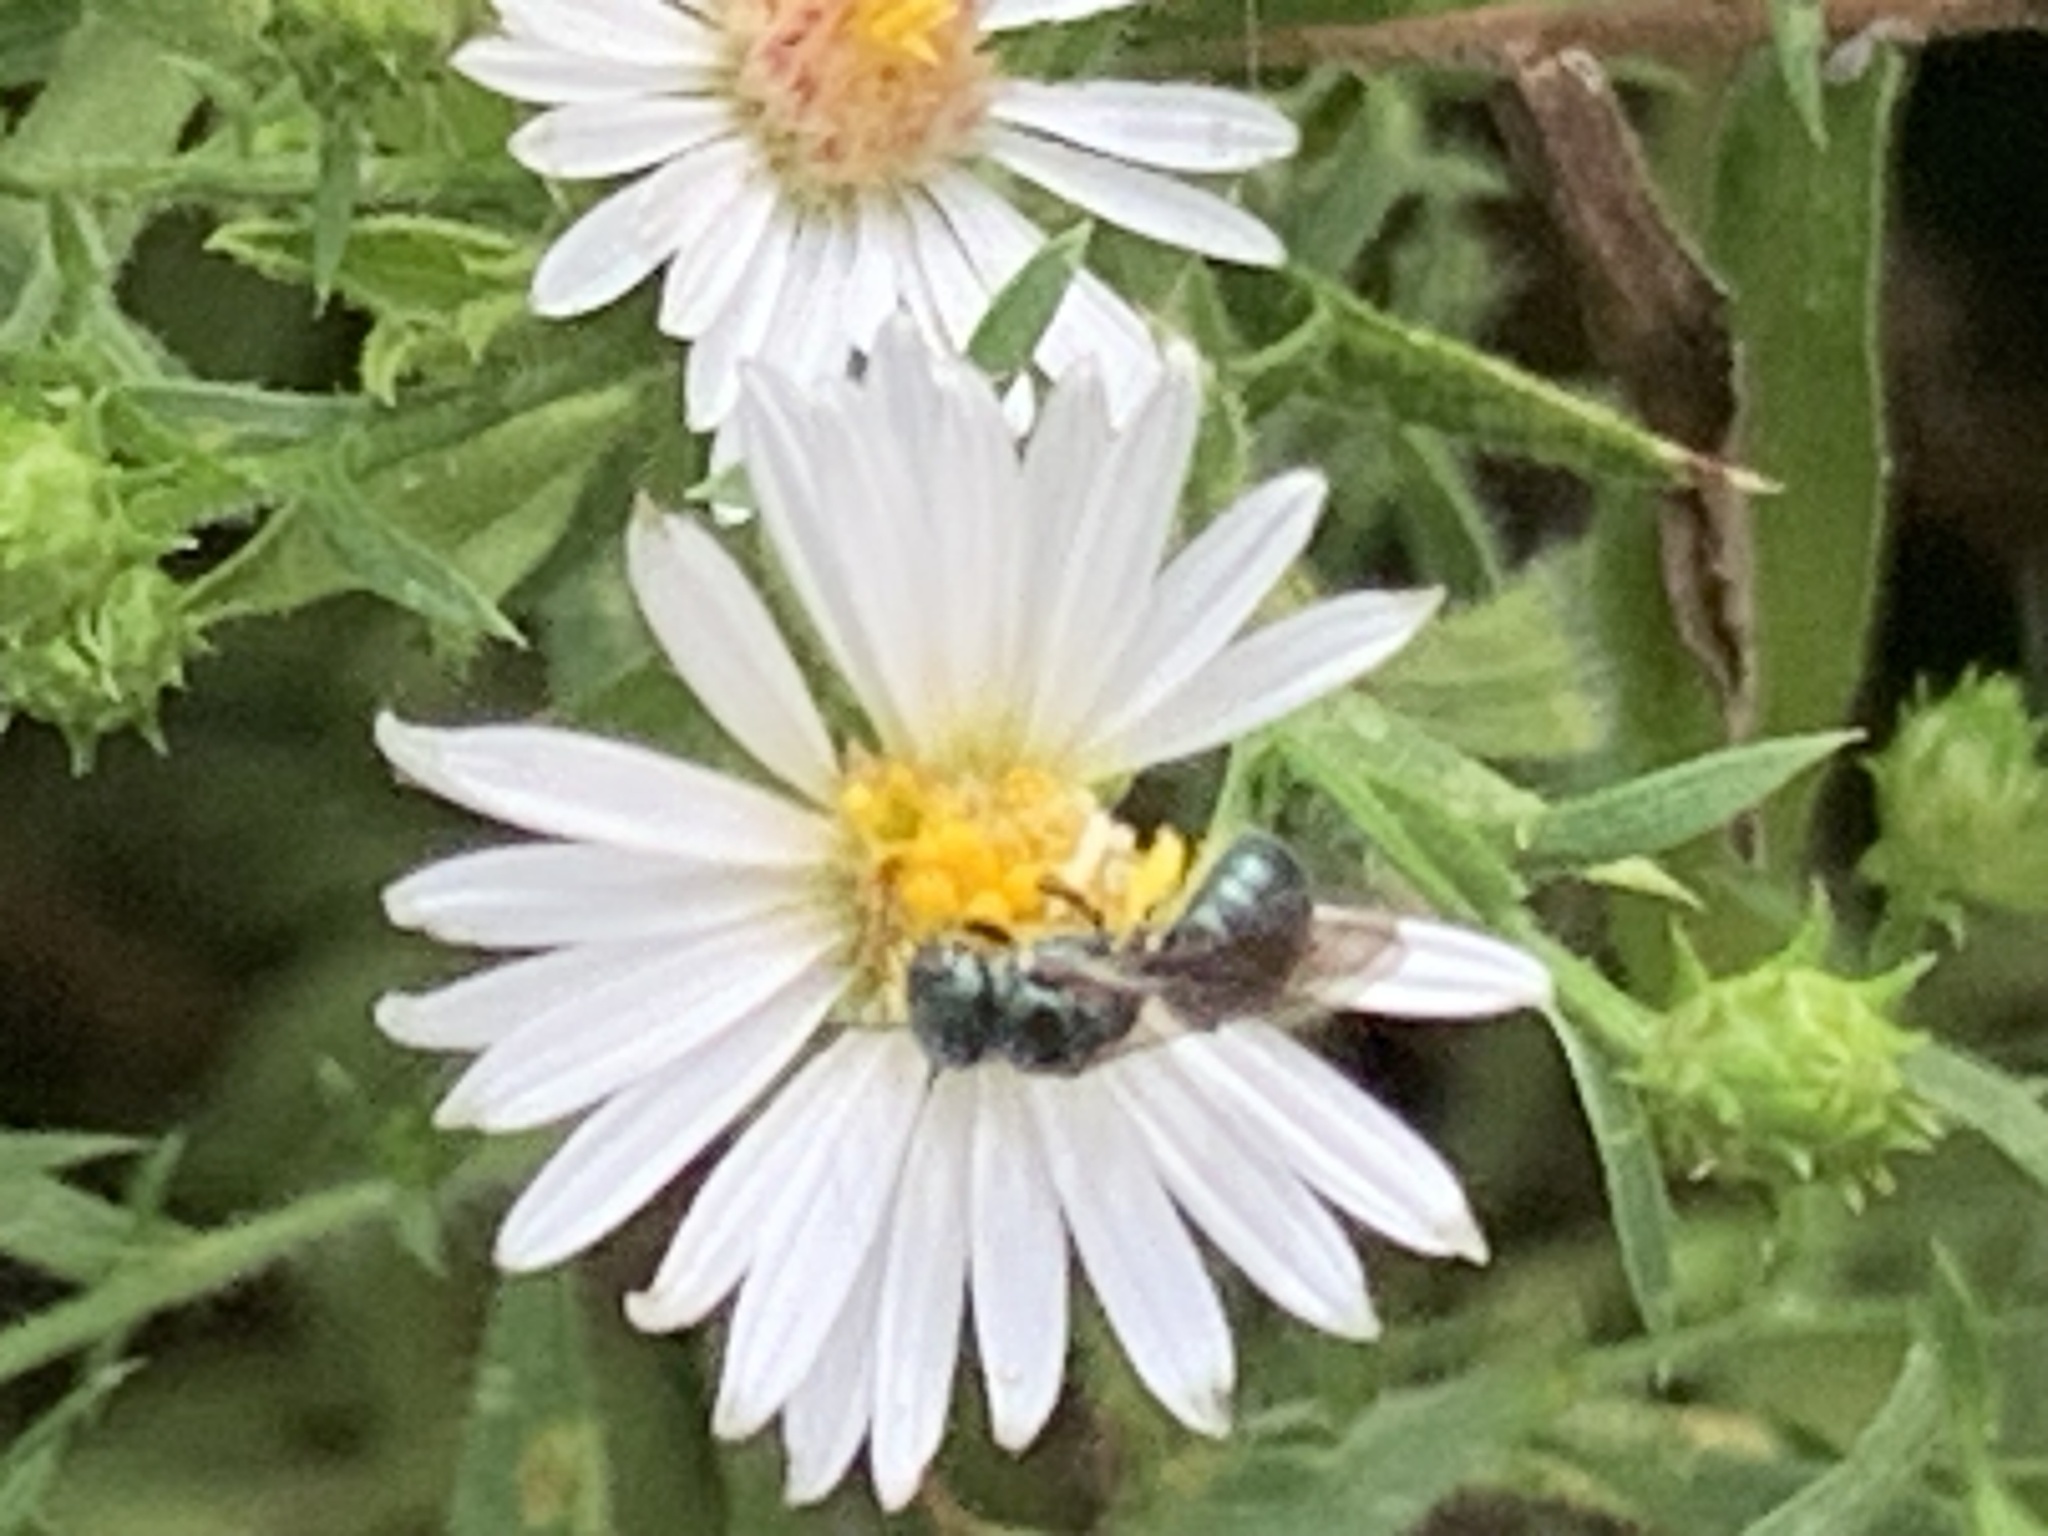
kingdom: Animalia
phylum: Arthropoda
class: Insecta
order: Hymenoptera
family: Apidae
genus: Zadontomerus
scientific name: Zadontomerus
